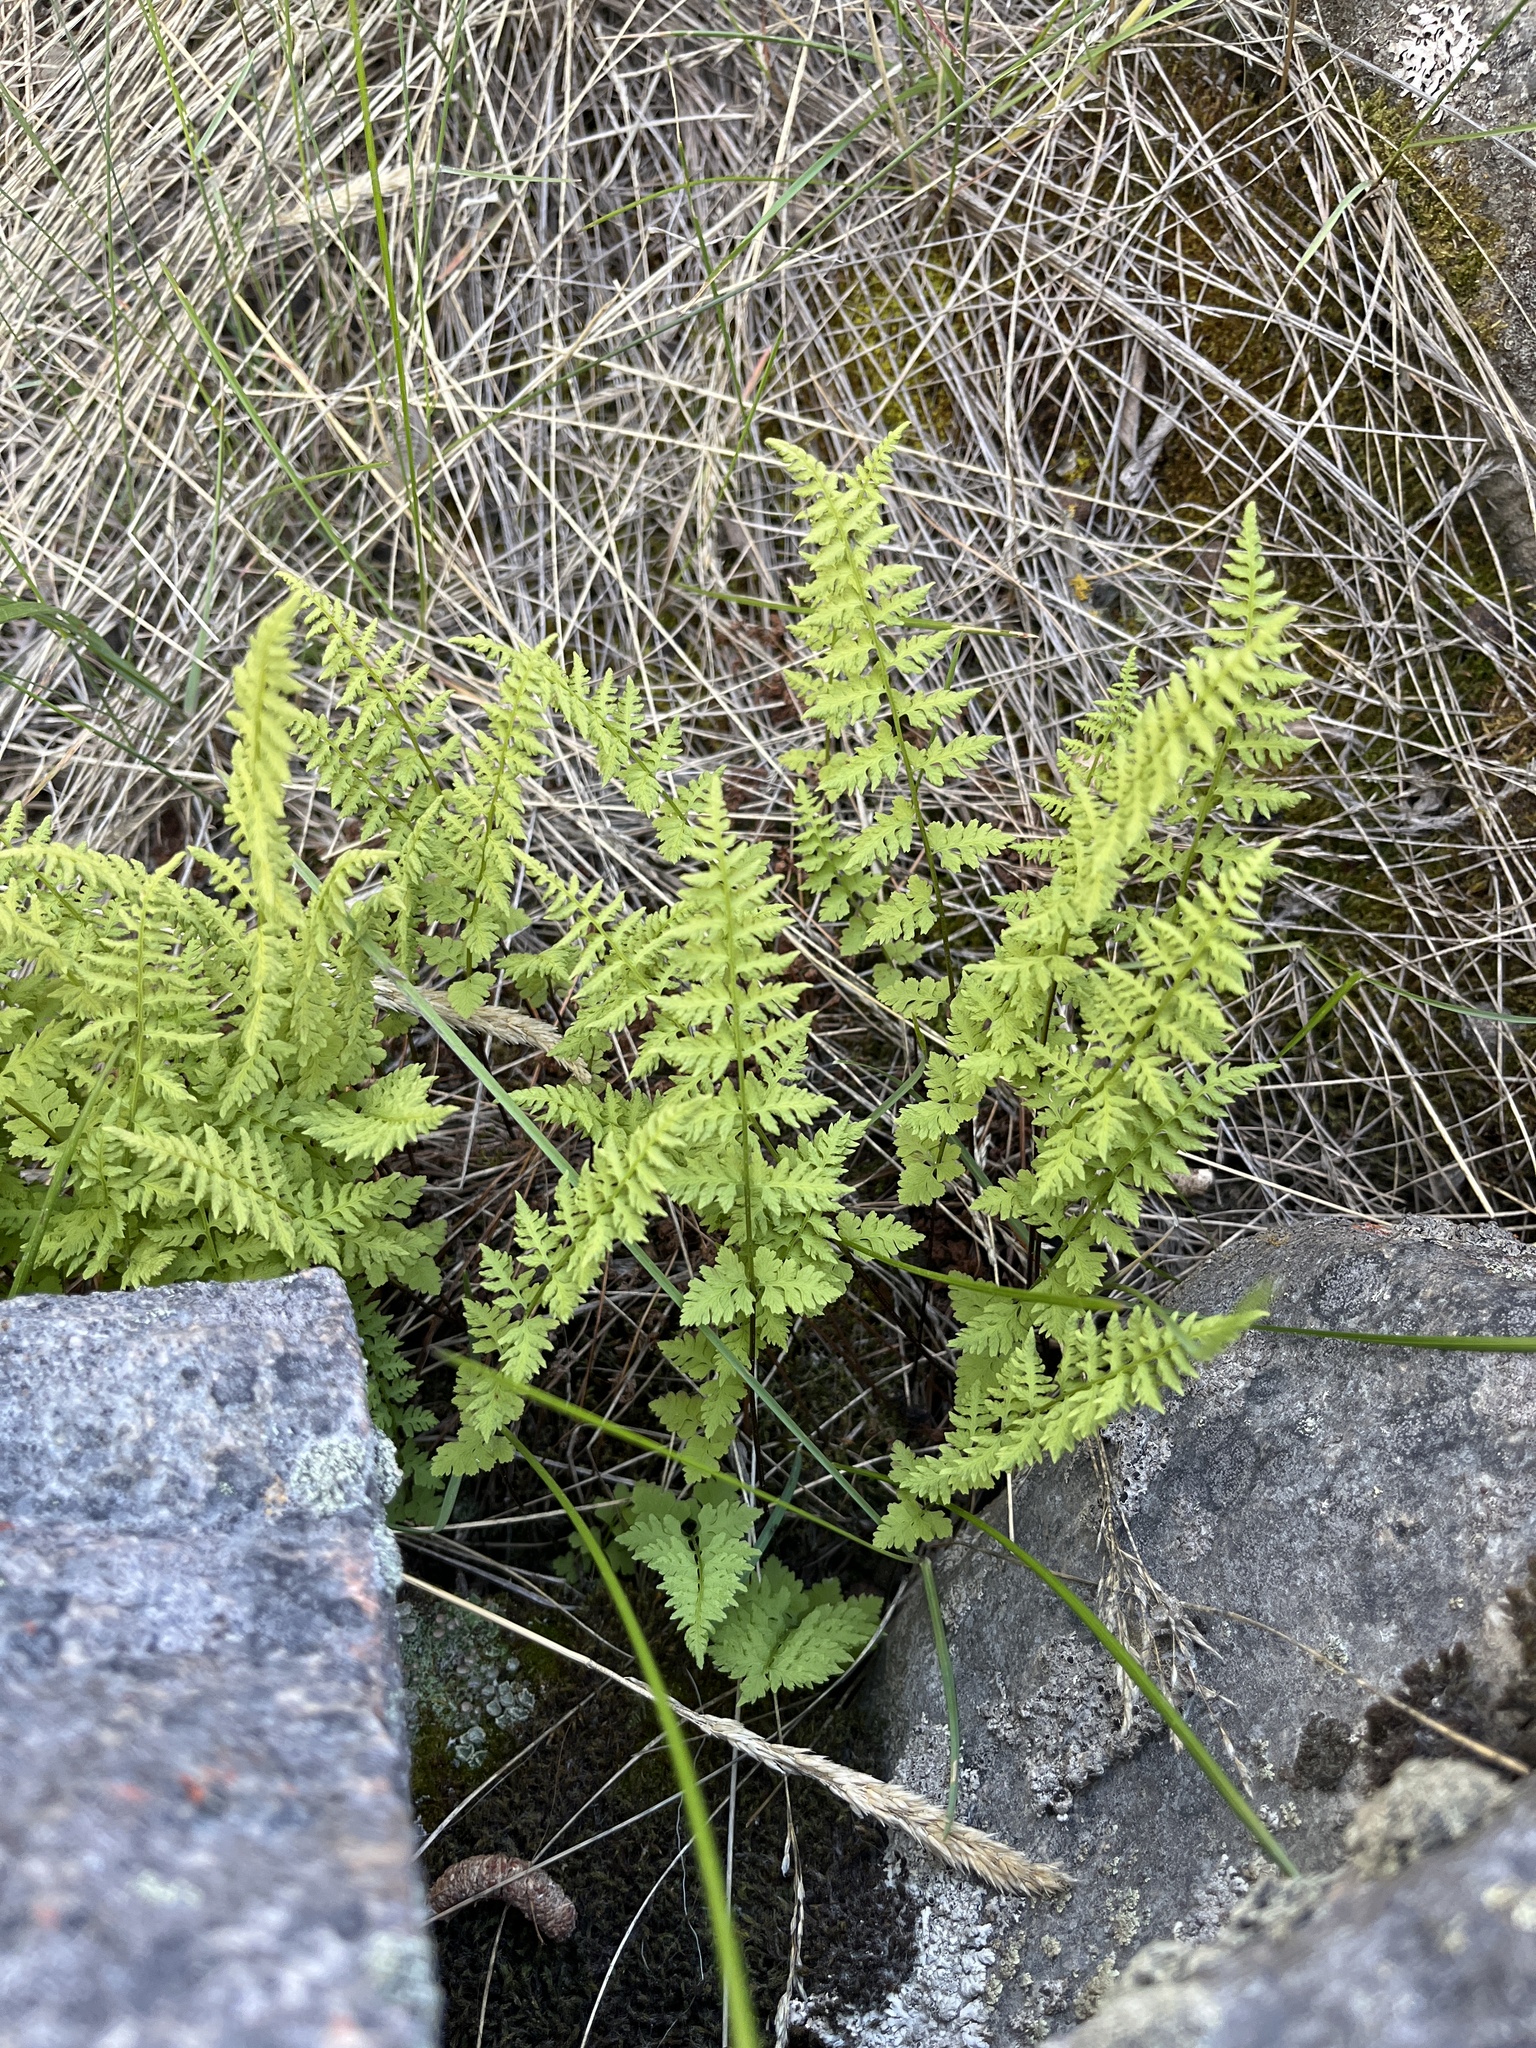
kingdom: Plantae
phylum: Tracheophyta
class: Polypodiopsida
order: Polypodiales
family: Cystopteridaceae
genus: Cystopteris
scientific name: Cystopteris fragilis
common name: Brittle bladder fern
